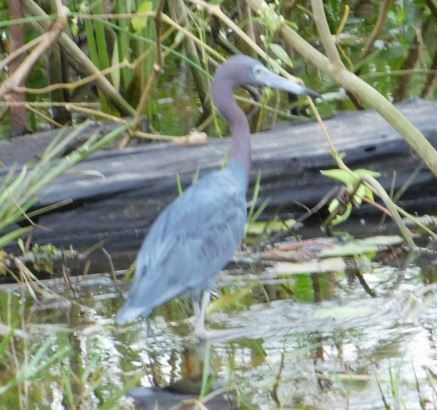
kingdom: Animalia
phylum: Chordata
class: Aves
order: Pelecaniformes
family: Ardeidae
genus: Egretta
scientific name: Egretta caerulea
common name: Little blue heron
